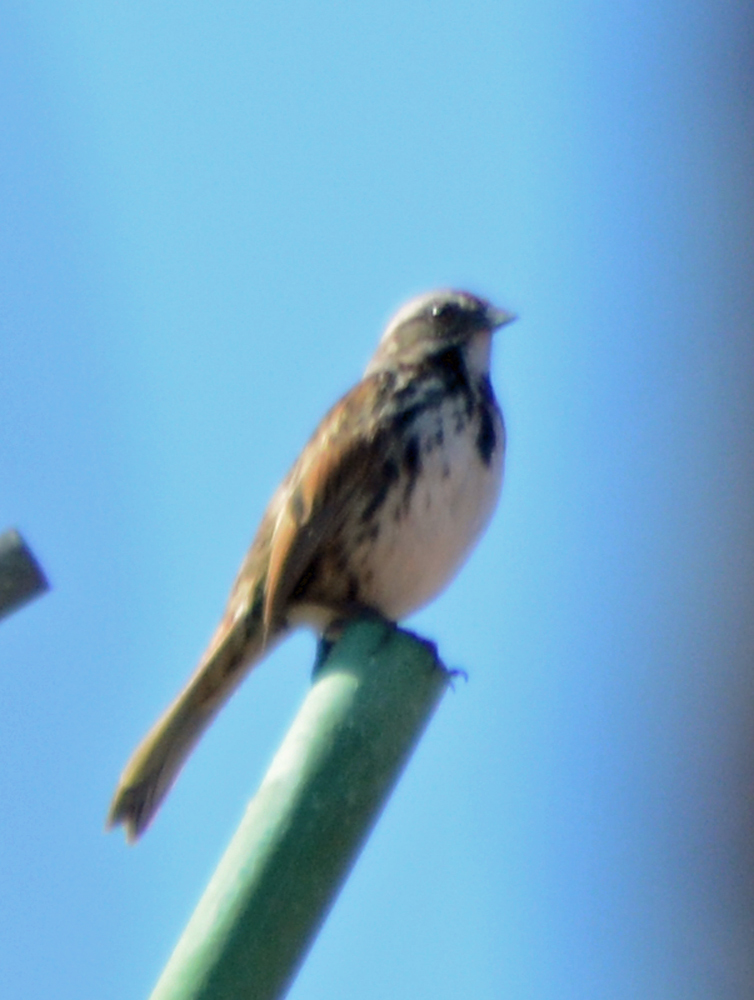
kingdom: Animalia
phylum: Chordata
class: Aves
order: Passeriformes
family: Passerellidae
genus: Melospiza
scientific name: Melospiza melodia
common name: Song sparrow
